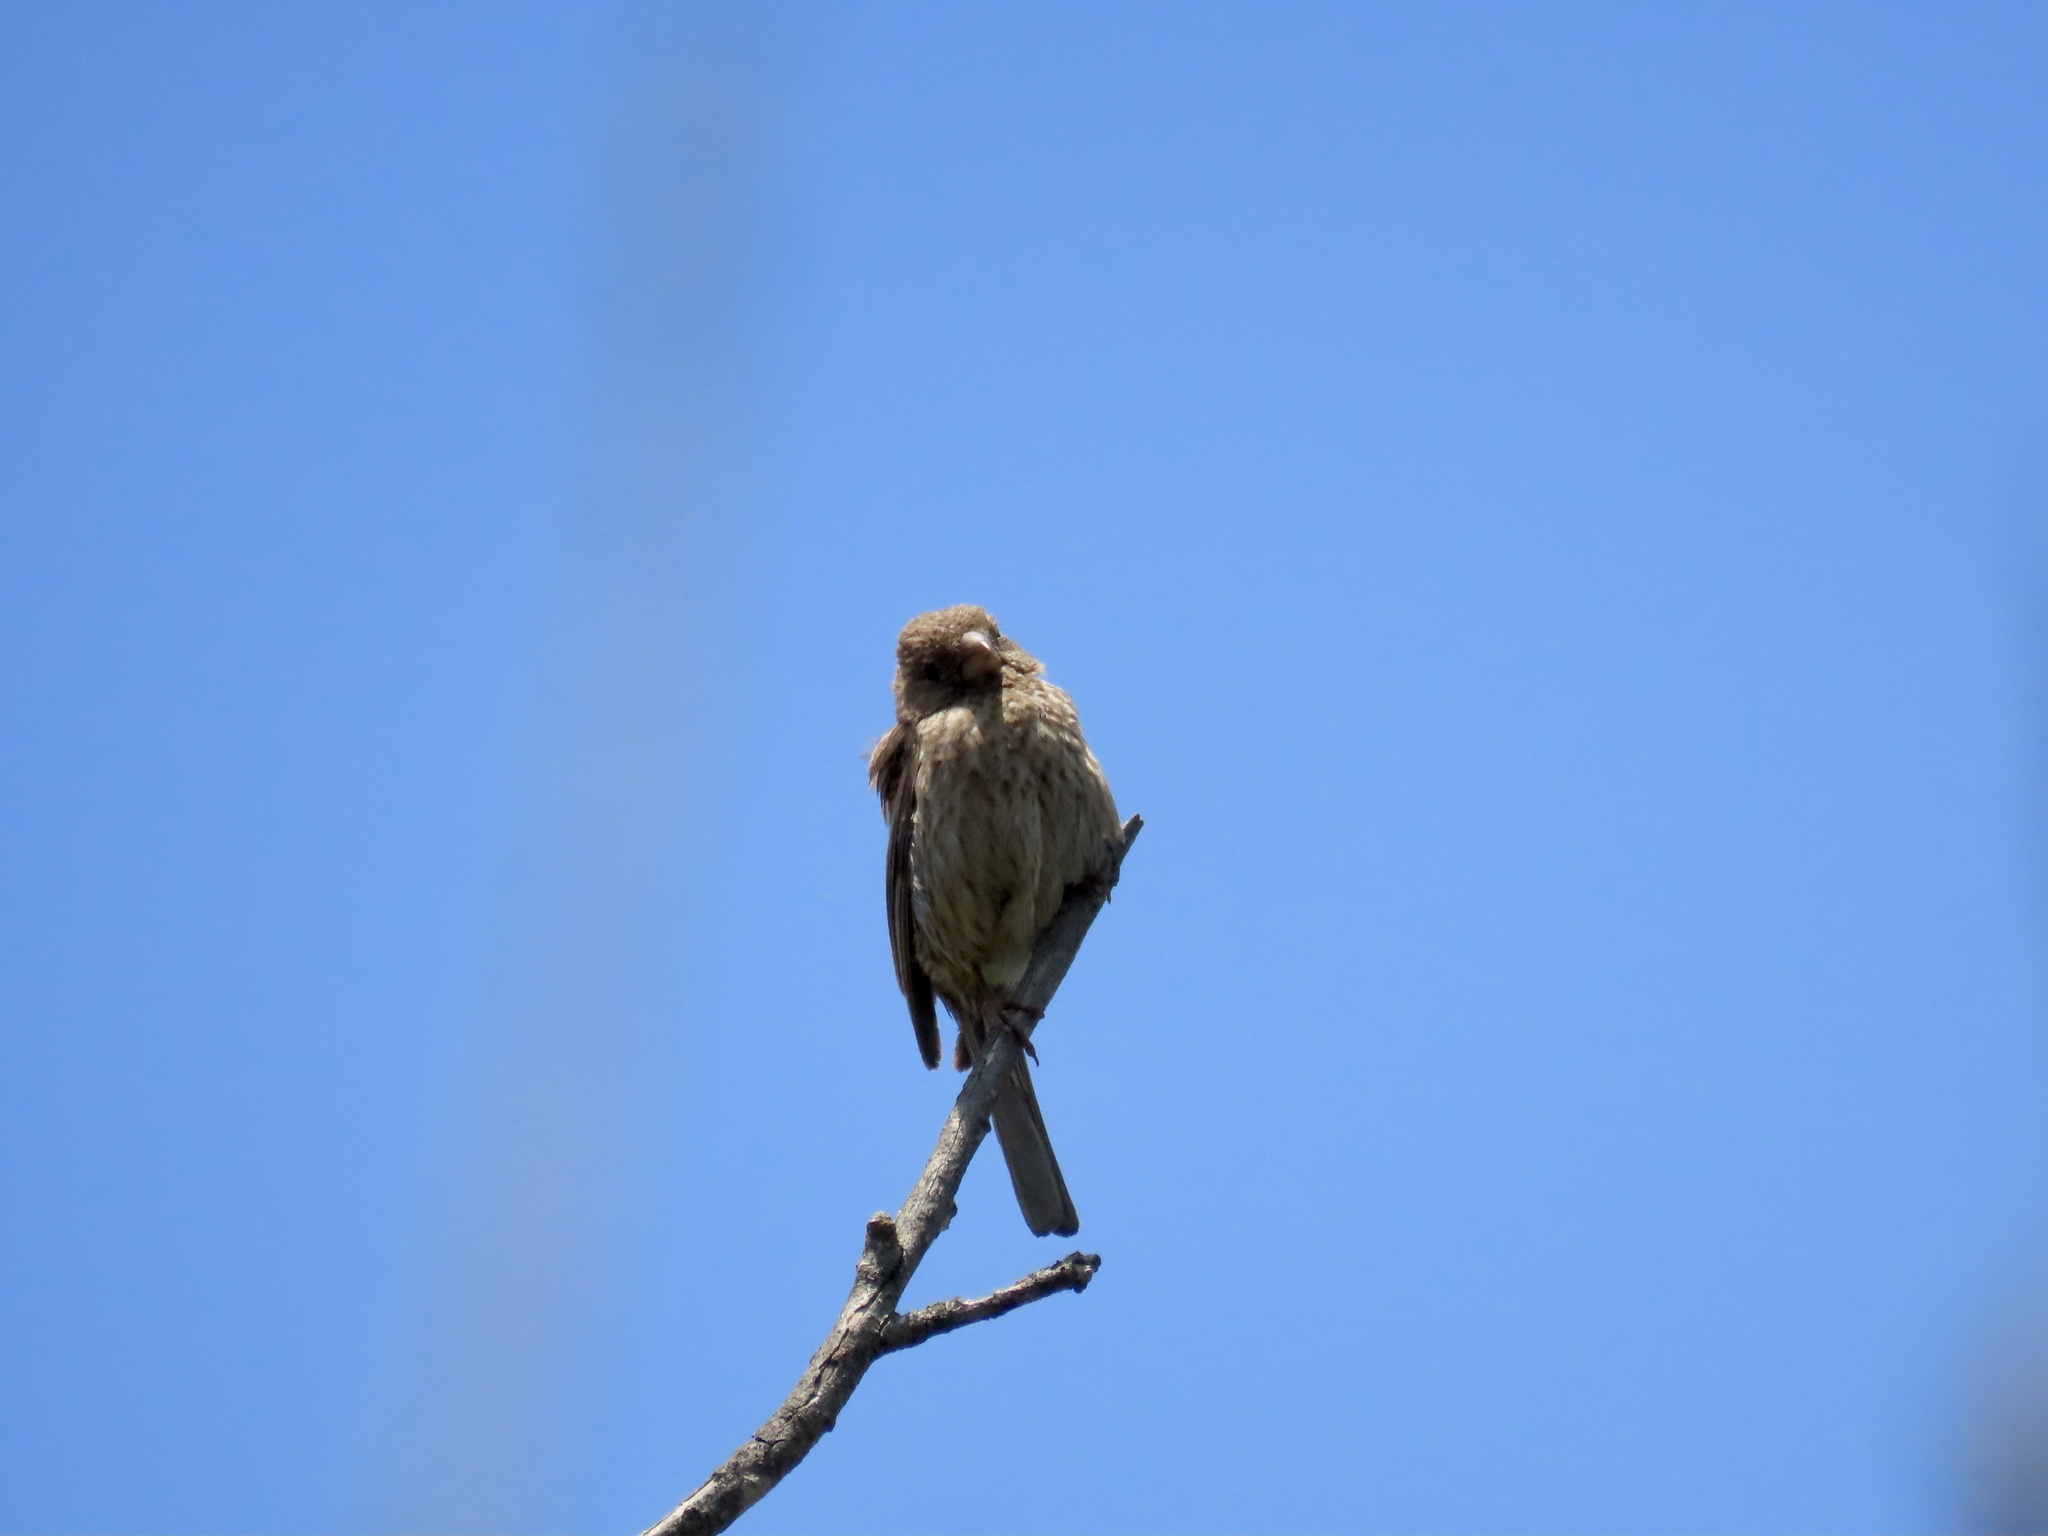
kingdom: Animalia
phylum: Chordata
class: Aves
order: Passeriformes
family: Fringillidae
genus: Haemorhous
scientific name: Haemorhous mexicanus
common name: House finch
